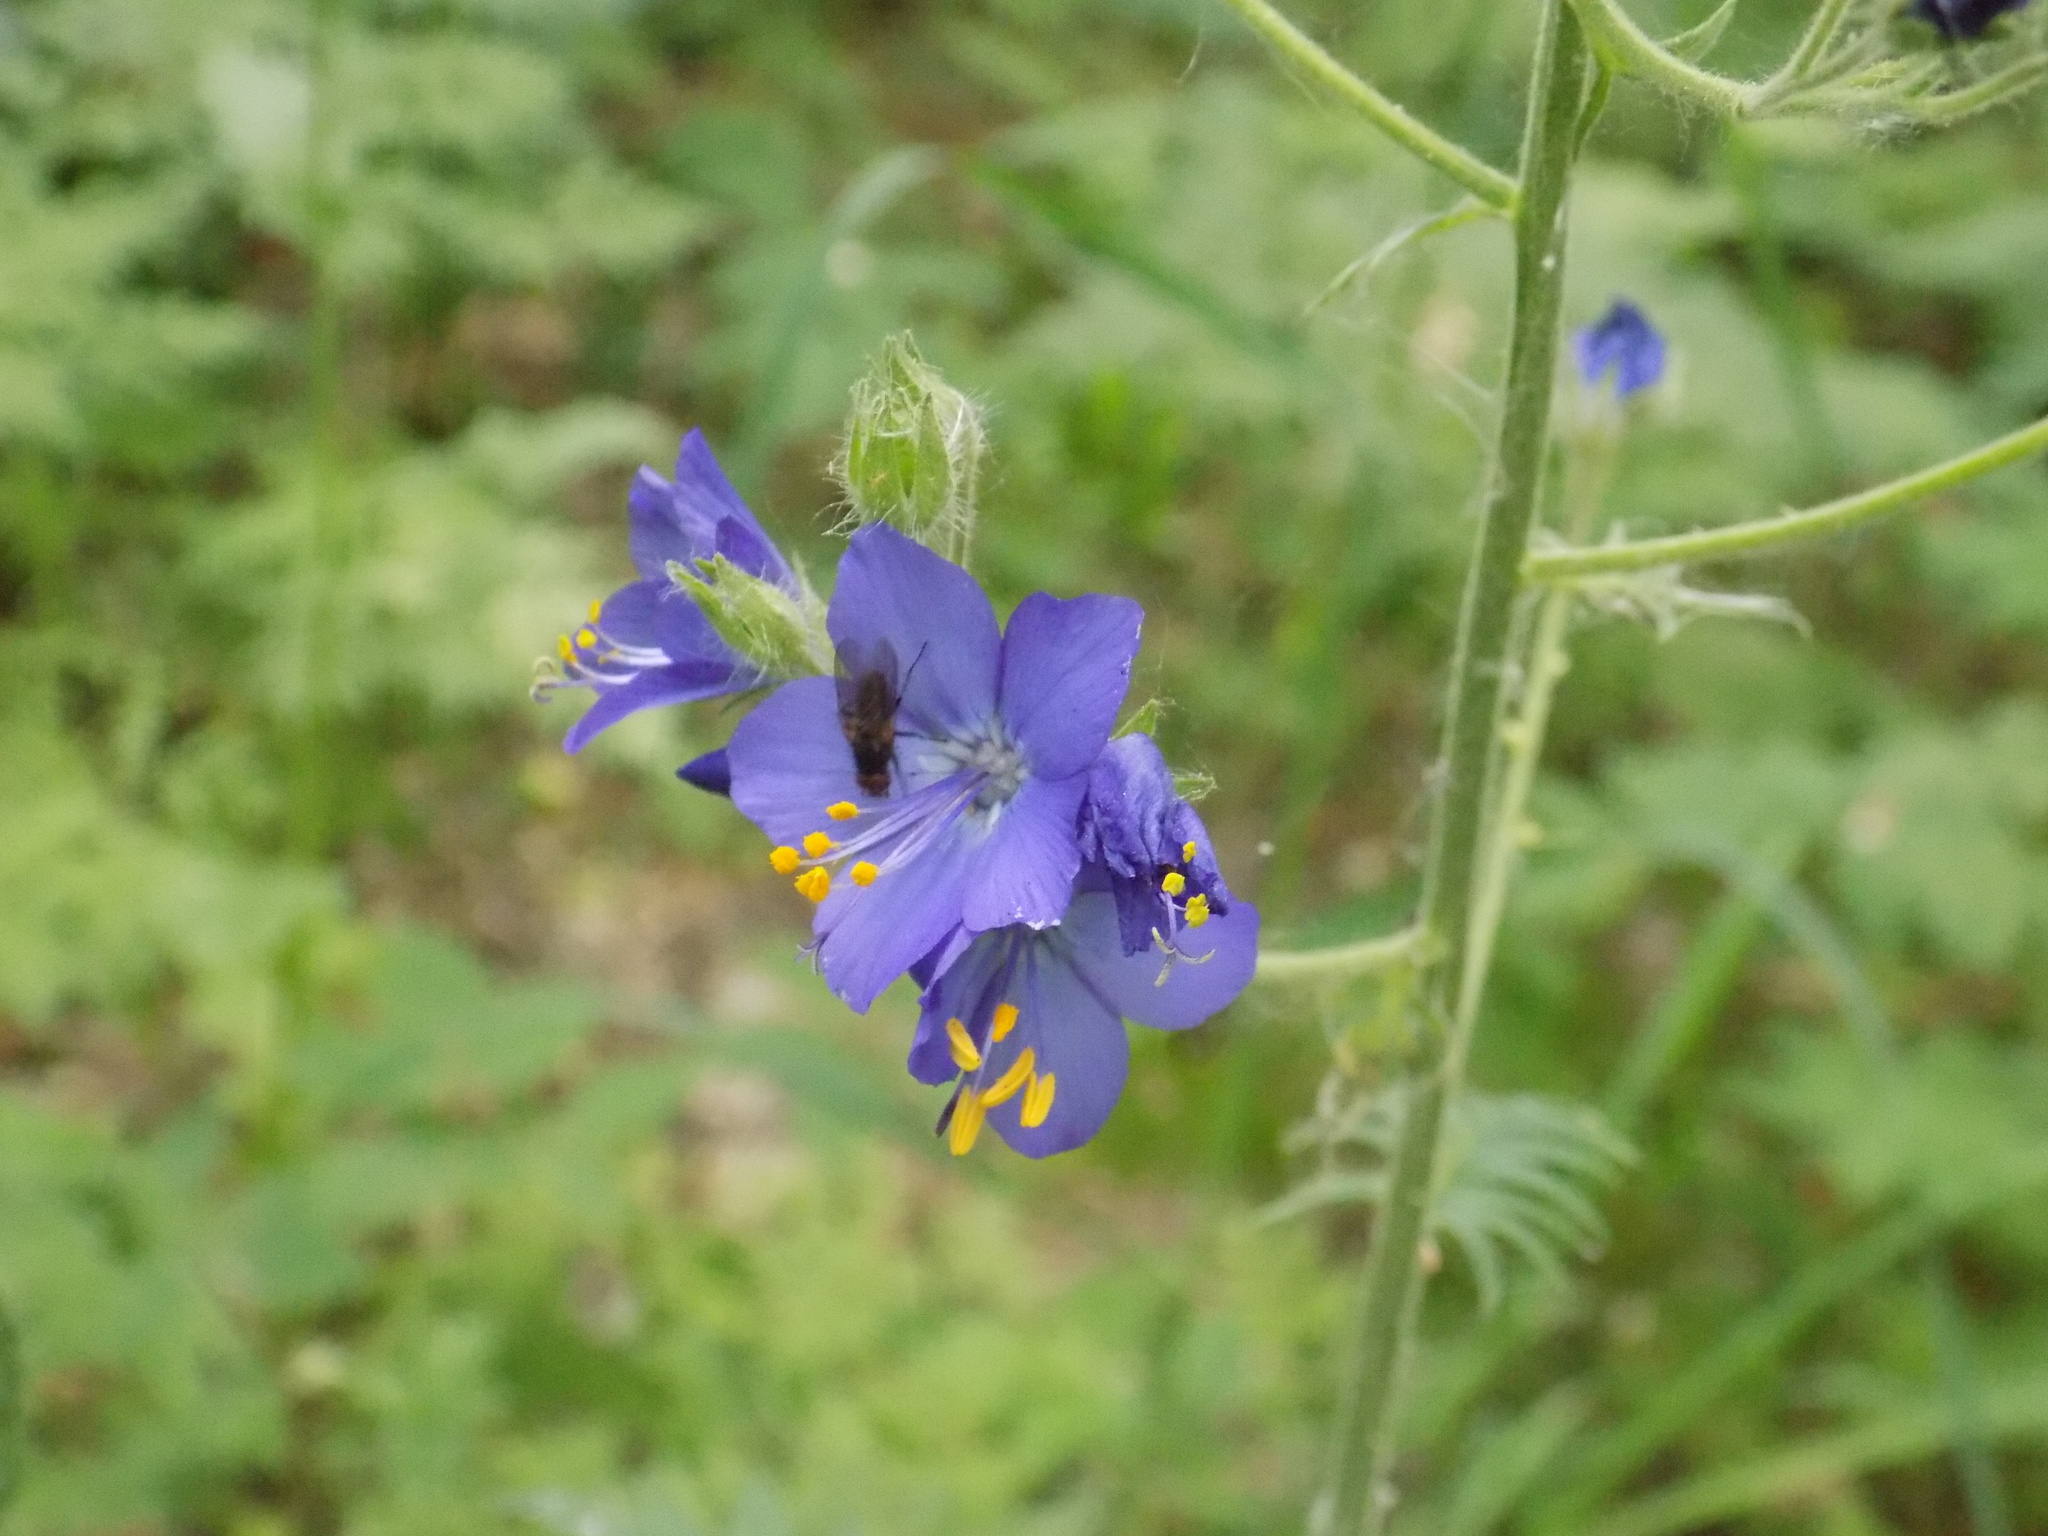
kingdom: Plantae
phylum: Tracheophyta
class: Magnoliopsida
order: Ericales
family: Polemoniaceae
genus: Polemonium
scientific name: Polemonium caeruleum
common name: Jacob's-ladder
